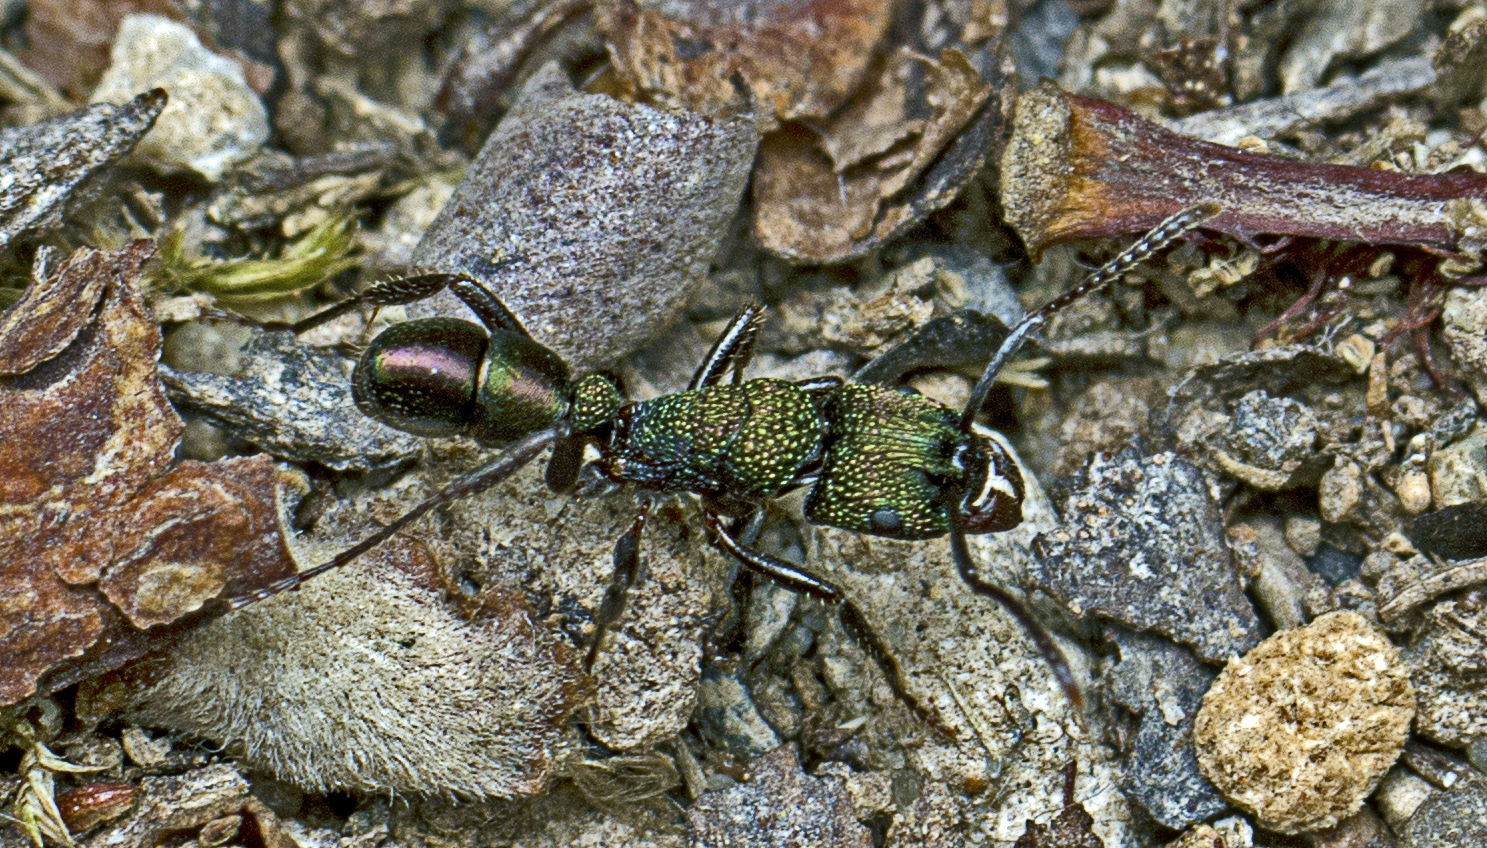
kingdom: Animalia
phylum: Arthropoda
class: Insecta
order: Hymenoptera
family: Formicidae
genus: Rhytidoponera
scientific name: Rhytidoponera metallica
